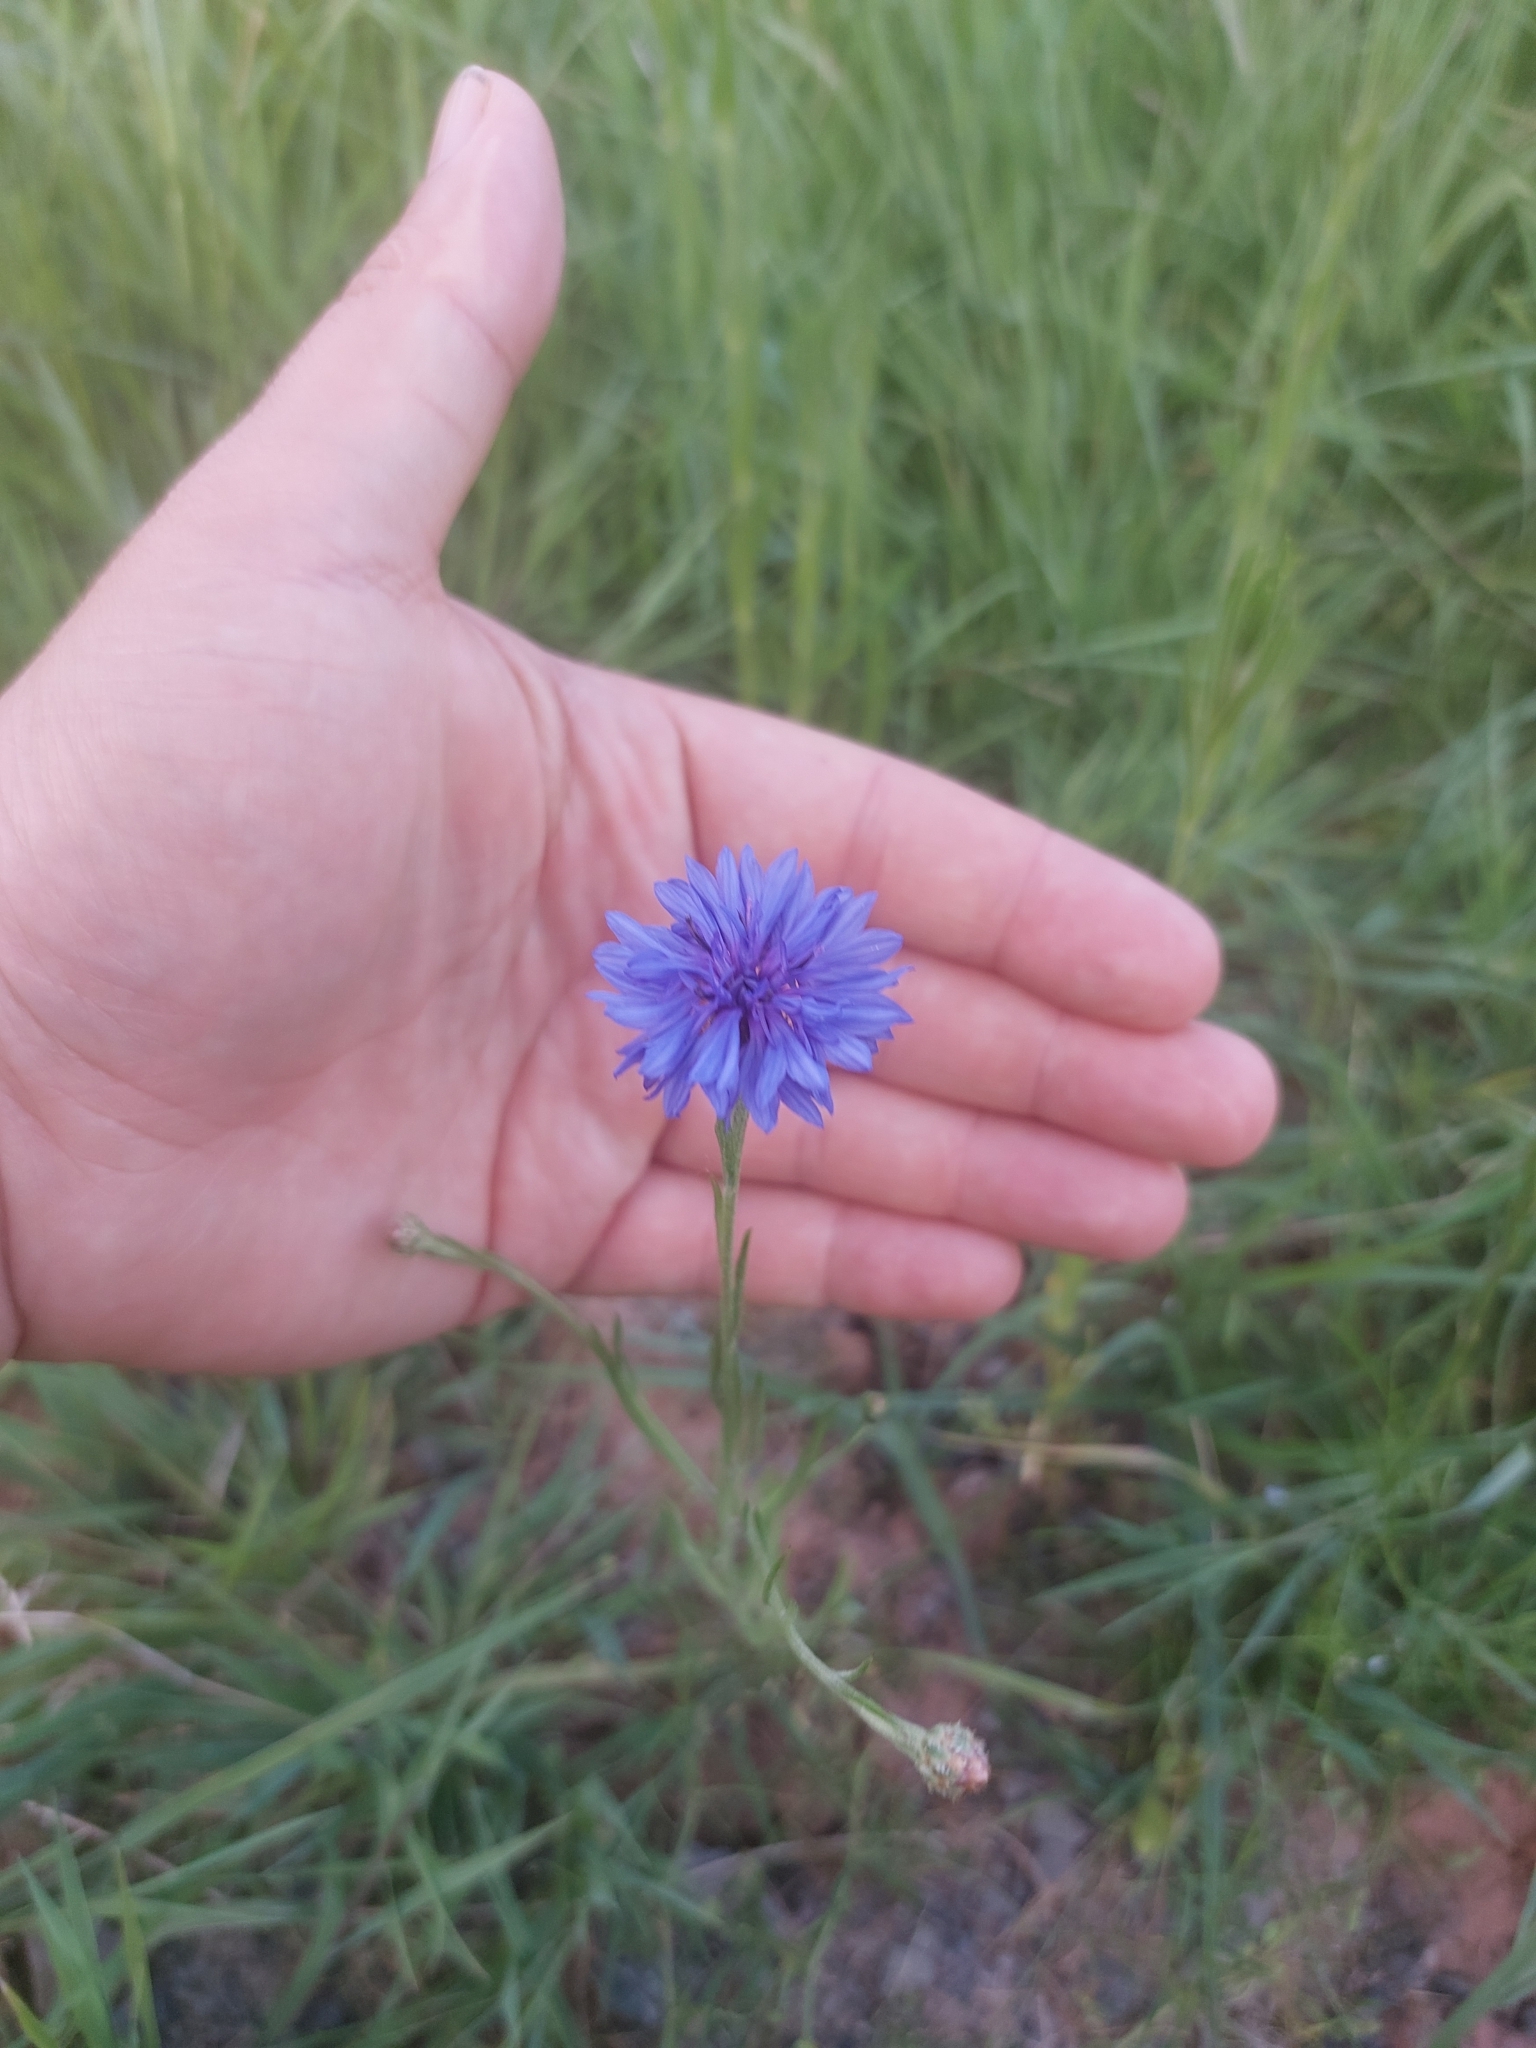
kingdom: Plantae
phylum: Tracheophyta
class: Magnoliopsida
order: Asterales
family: Asteraceae
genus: Centaurea
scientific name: Centaurea cyanus
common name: Cornflower
